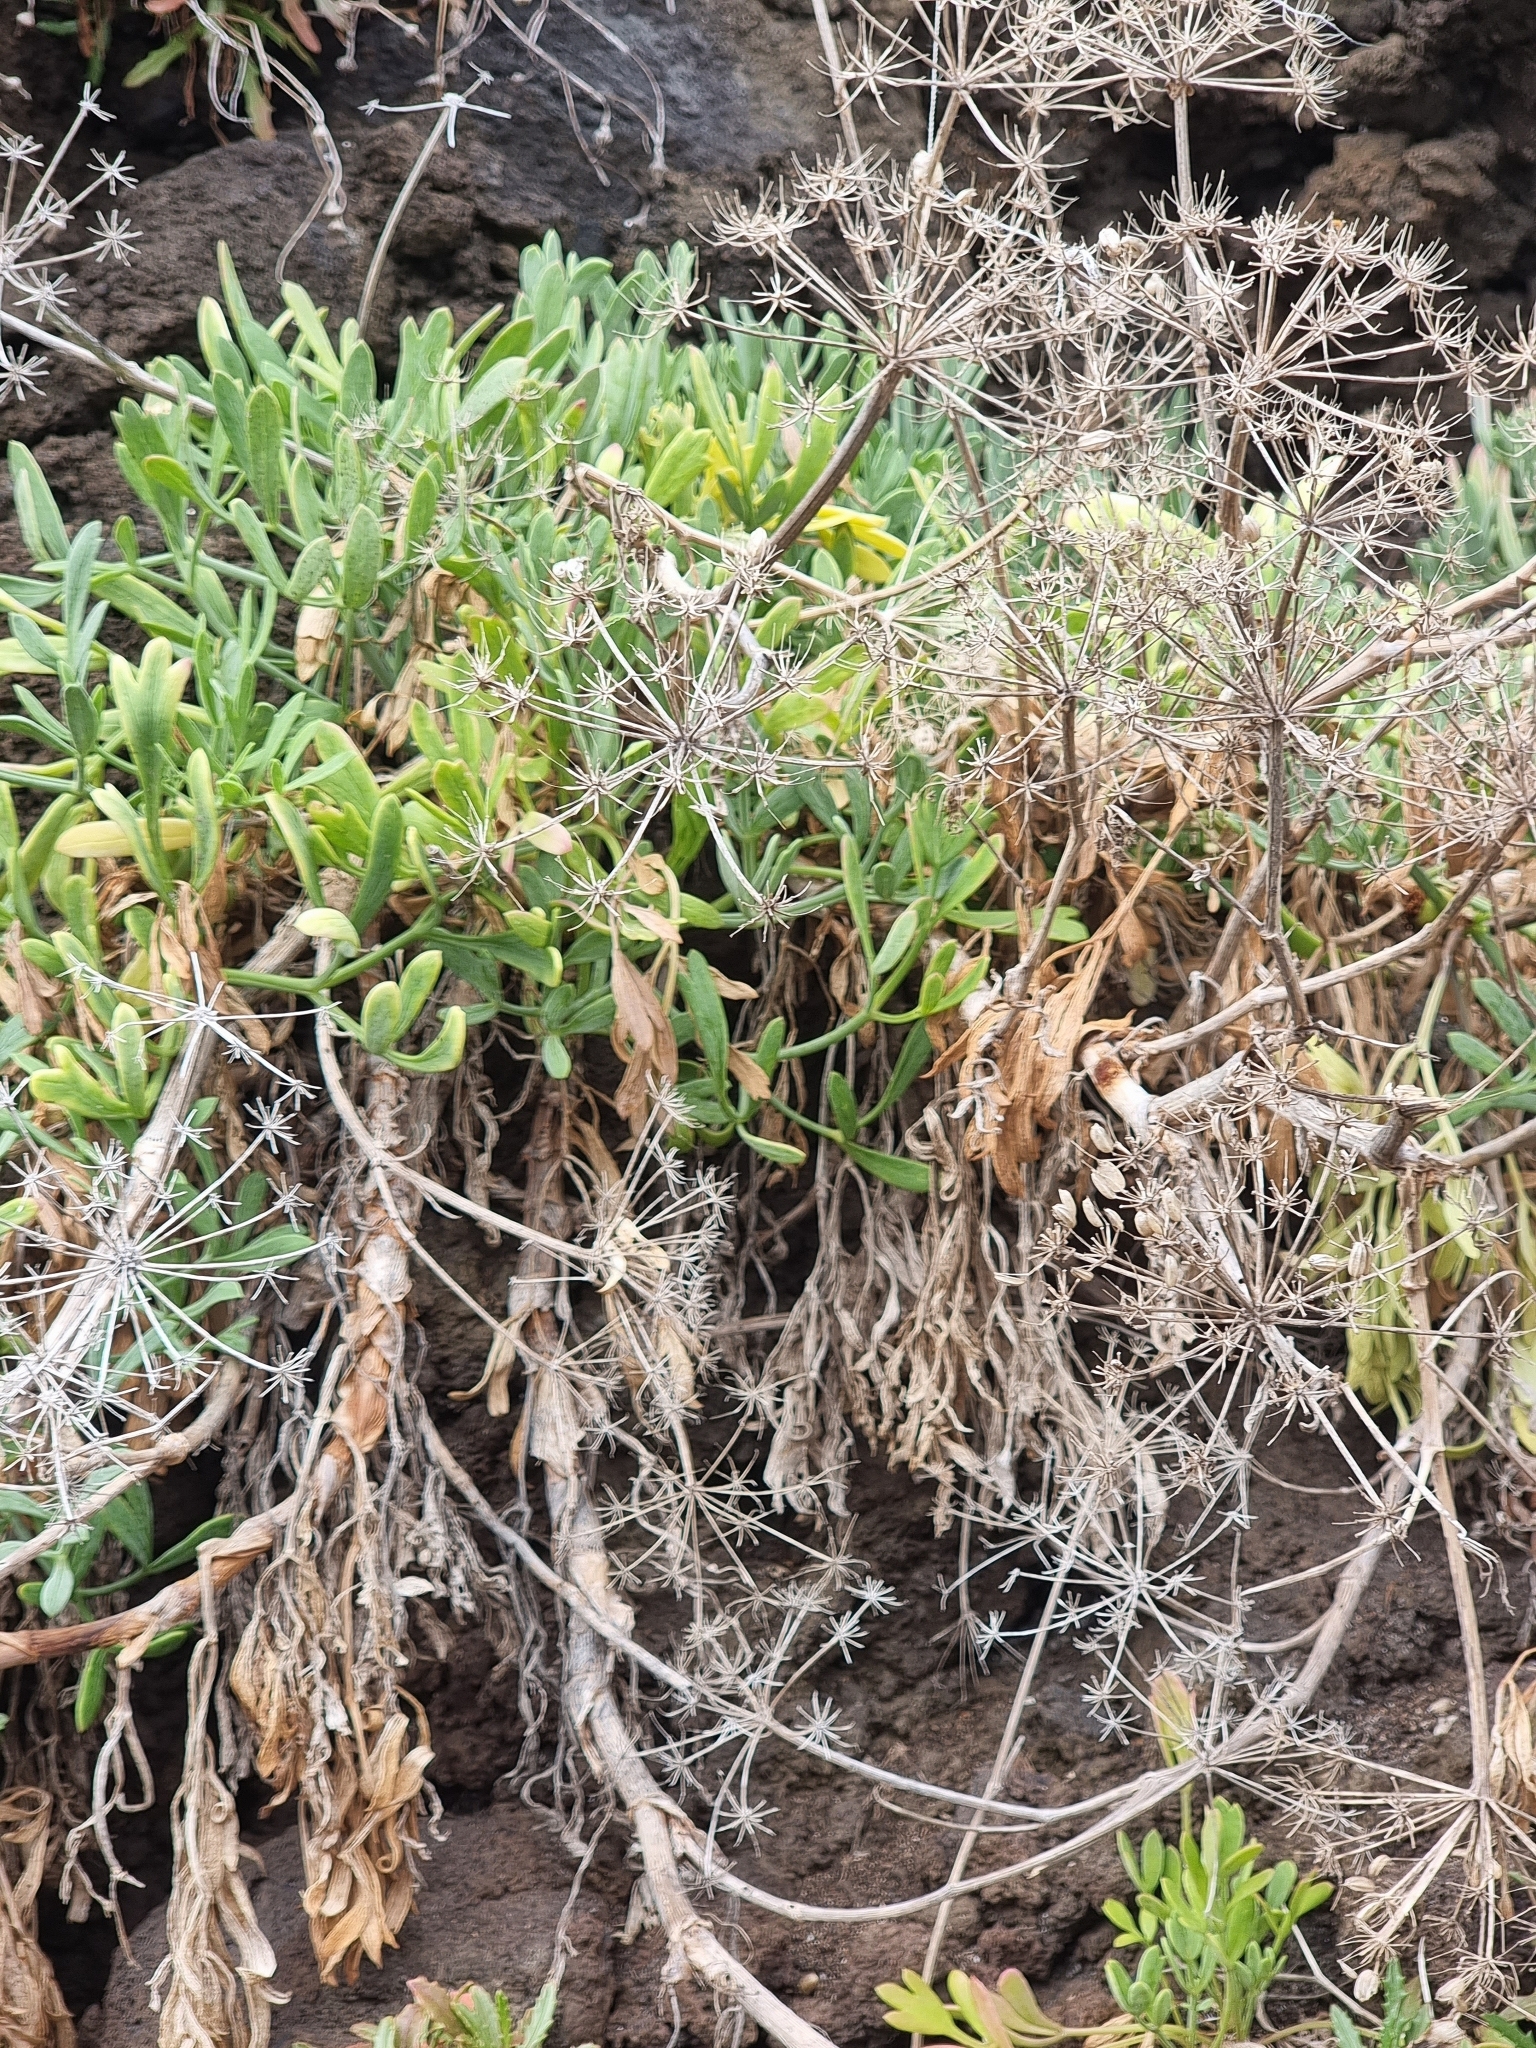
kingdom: Plantae
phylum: Tracheophyta
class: Magnoliopsida
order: Apiales
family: Apiaceae
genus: Crithmum
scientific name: Crithmum maritimum
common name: Rock samphire
